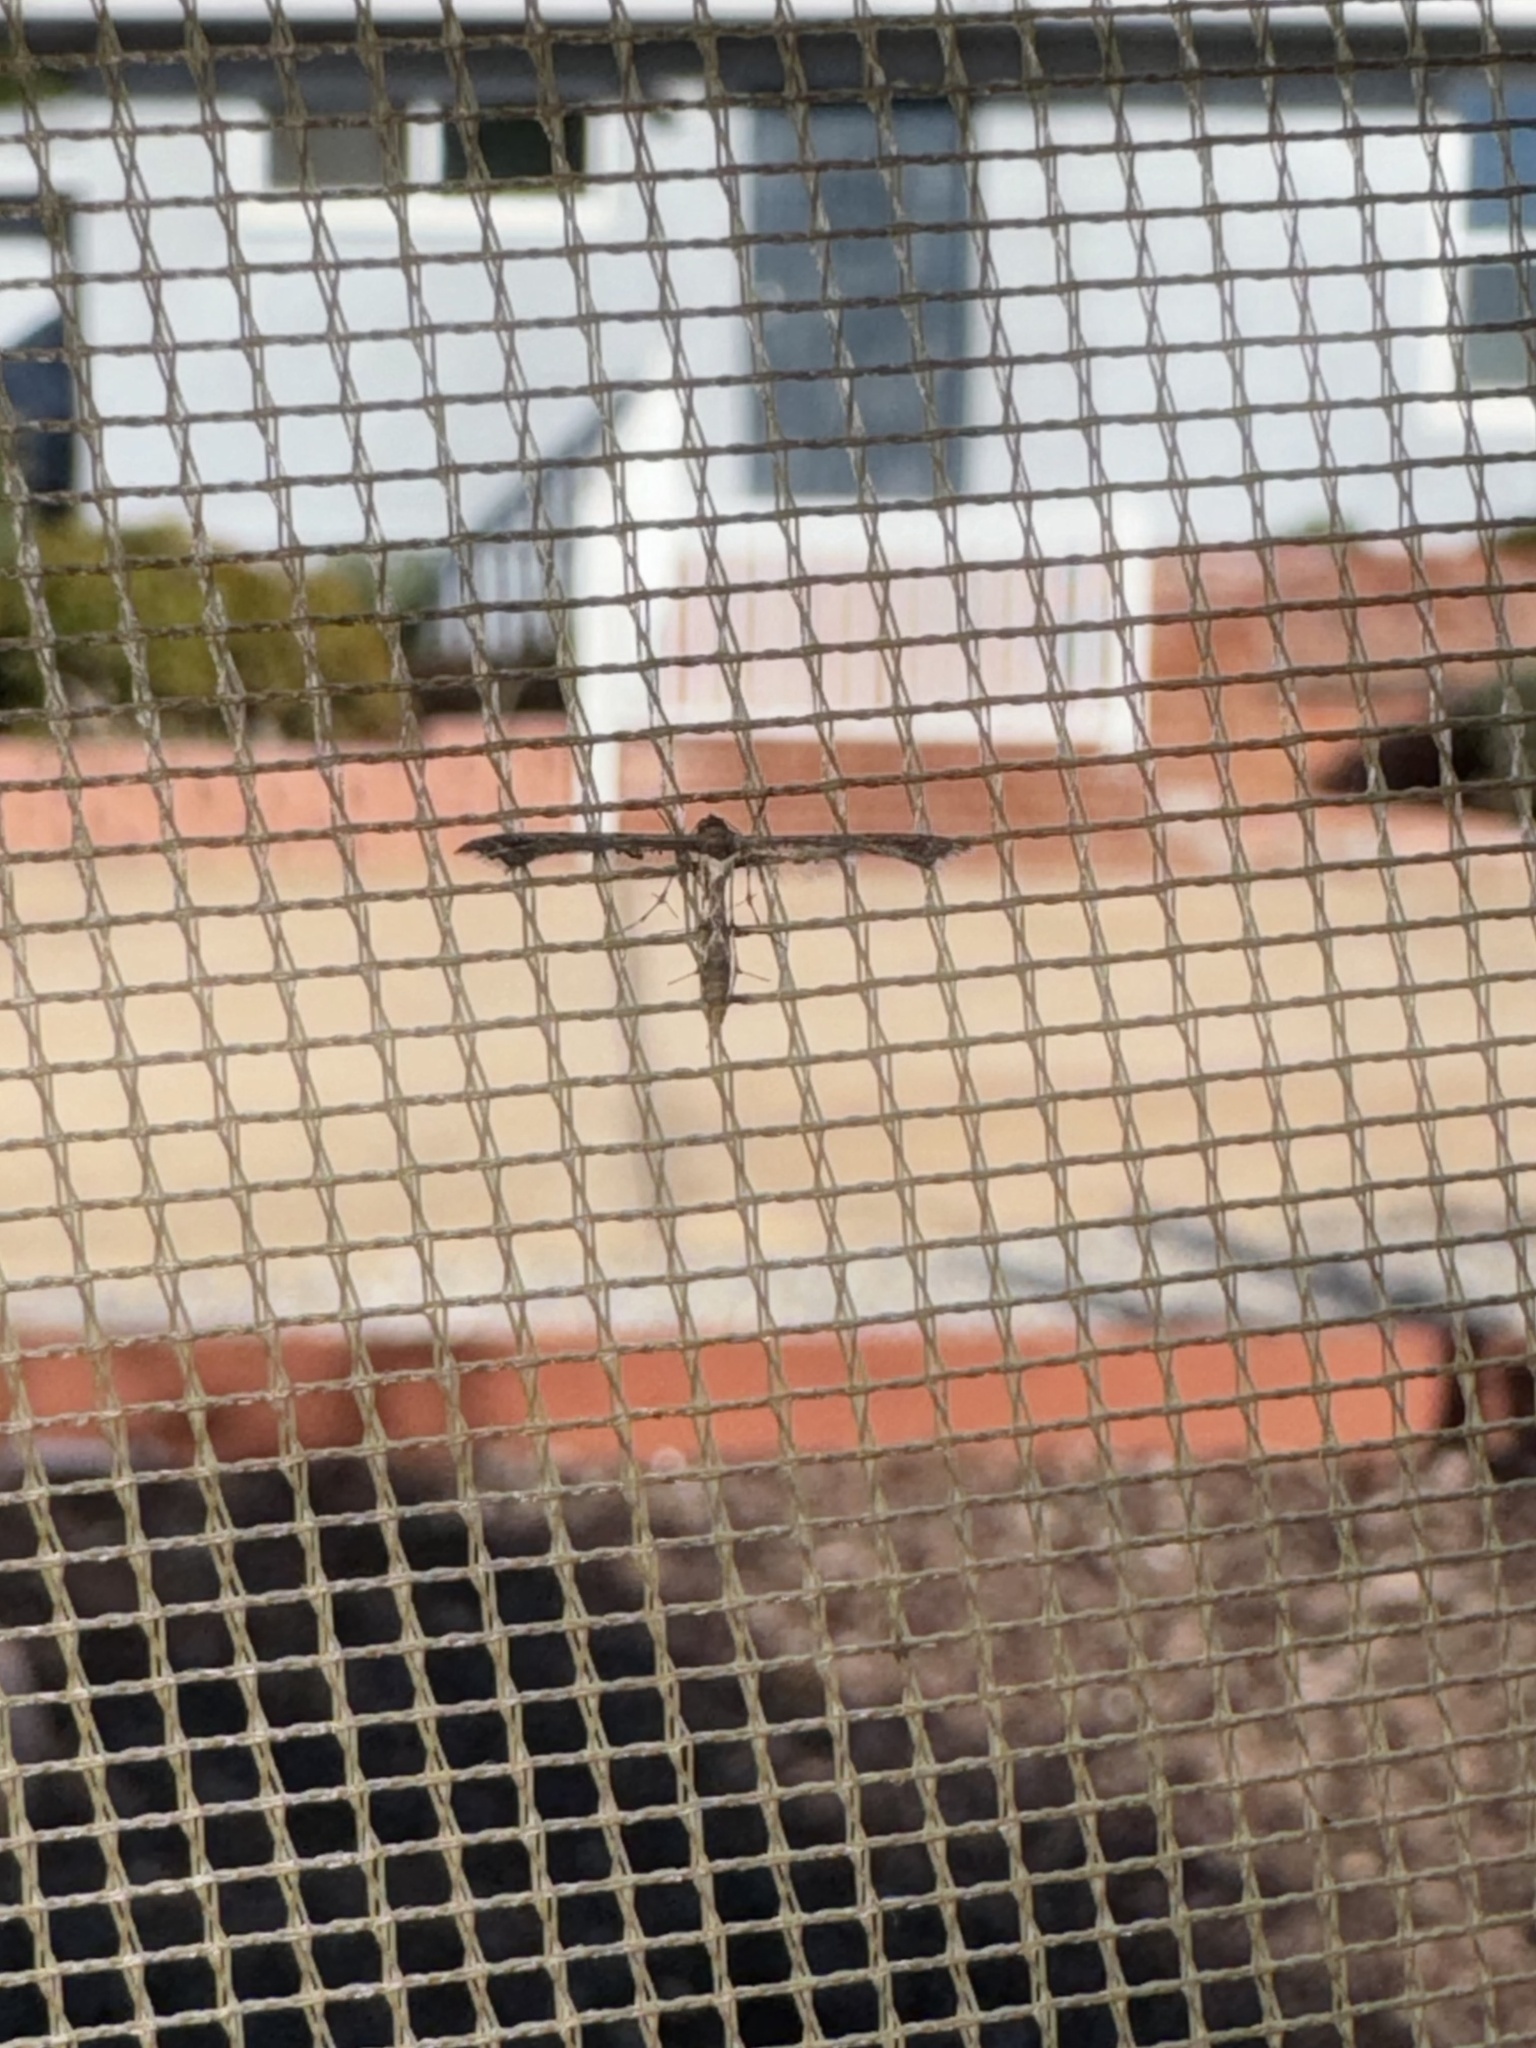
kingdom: Animalia
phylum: Arthropoda
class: Insecta
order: Lepidoptera
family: Pterophoridae
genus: Michaelophorus
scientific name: Michaelophorus indentatus
